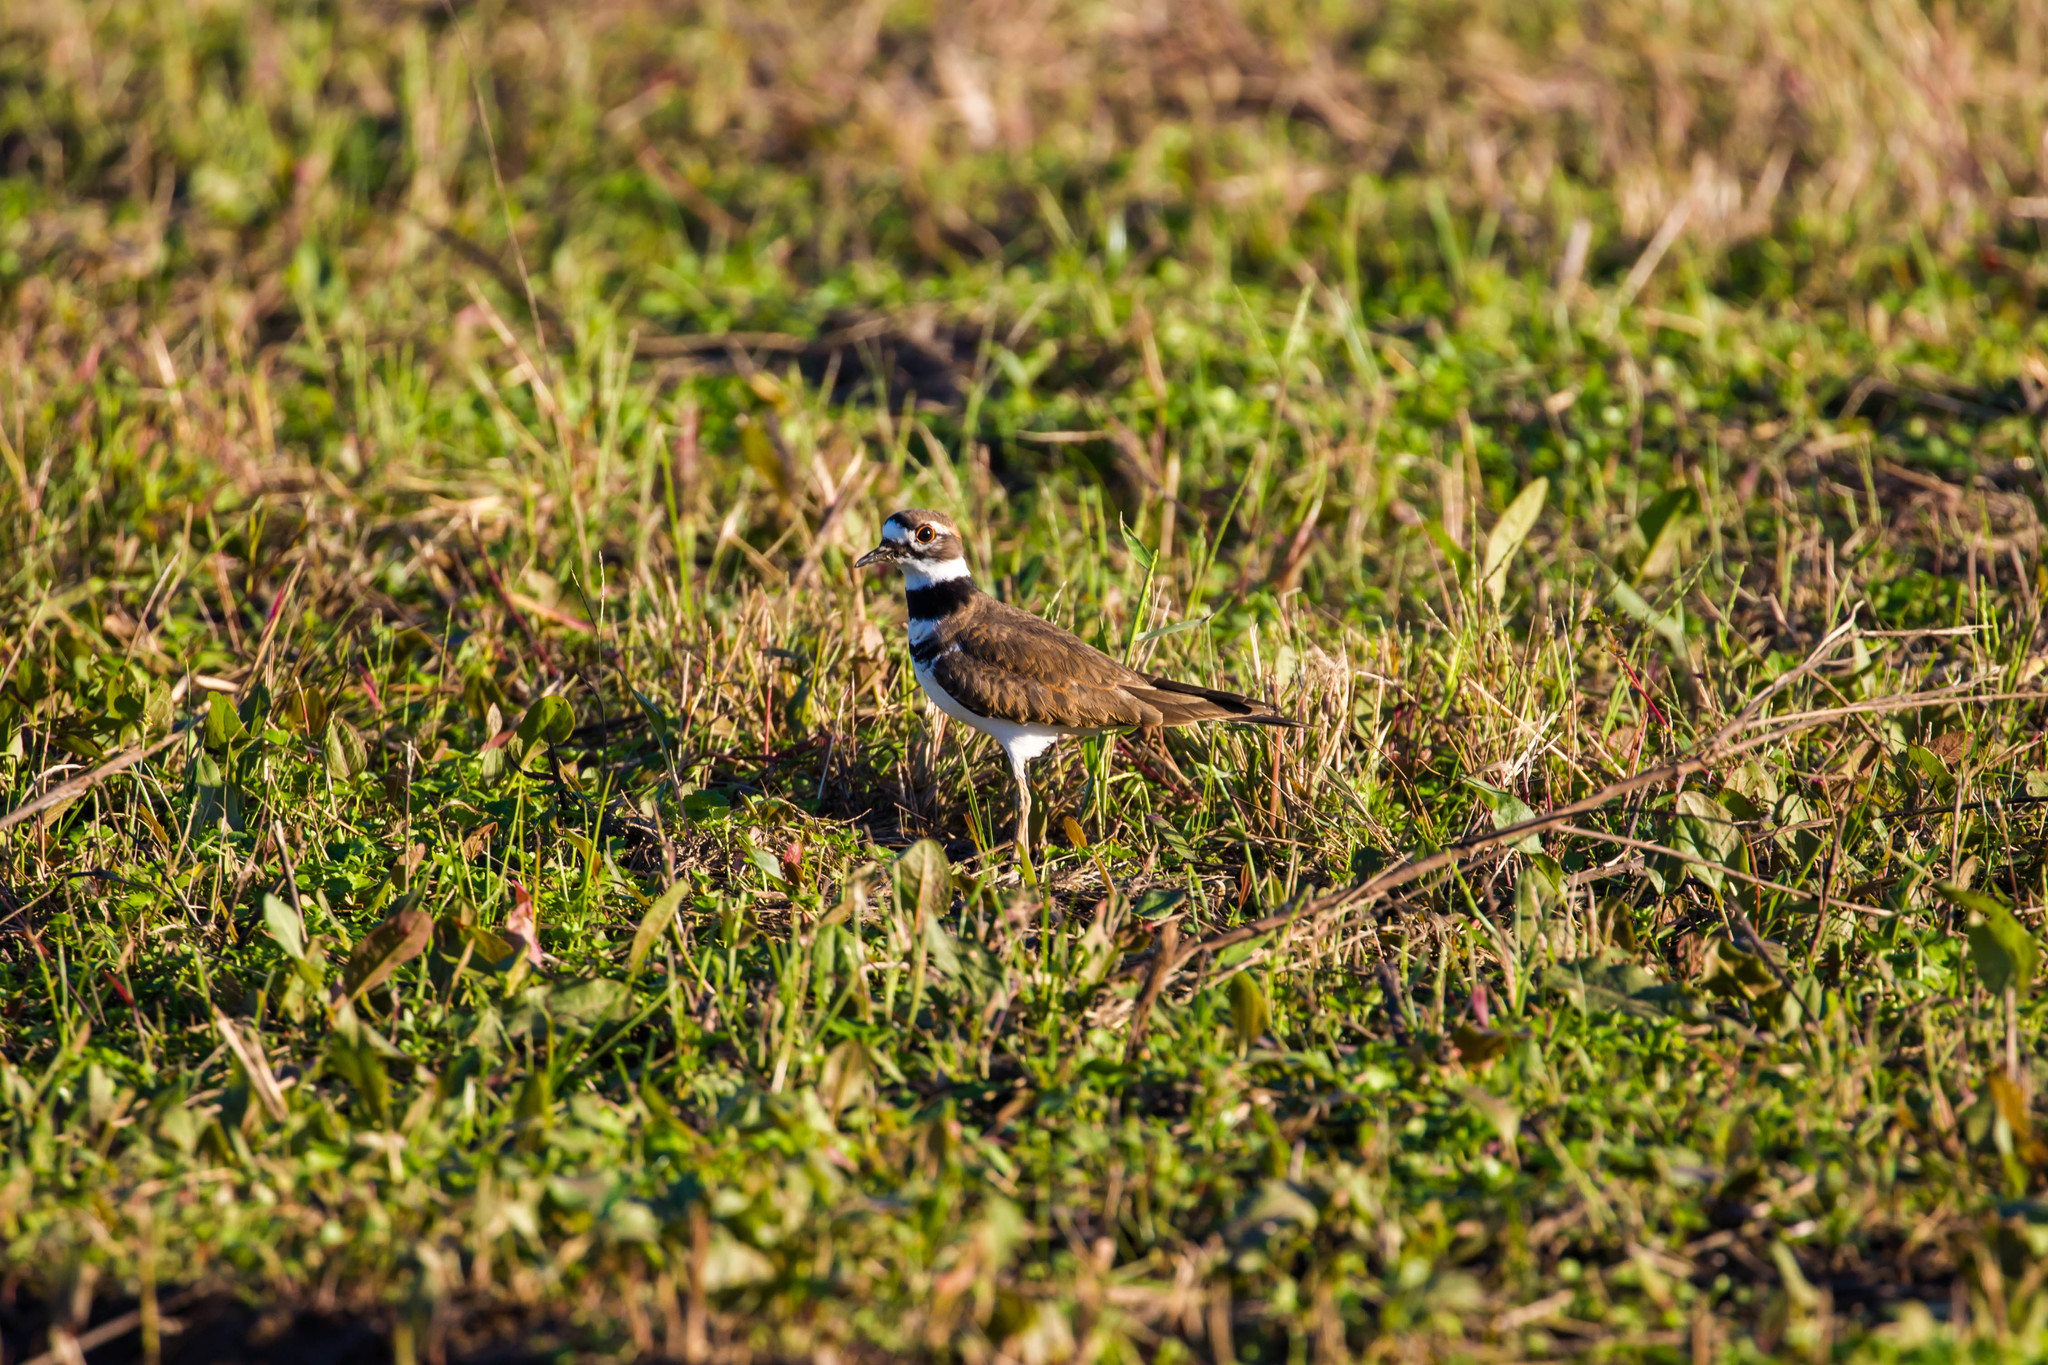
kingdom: Animalia
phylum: Chordata
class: Aves
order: Charadriiformes
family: Charadriidae
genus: Charadrius
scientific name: Charadrius vociferus
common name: Killdeer
